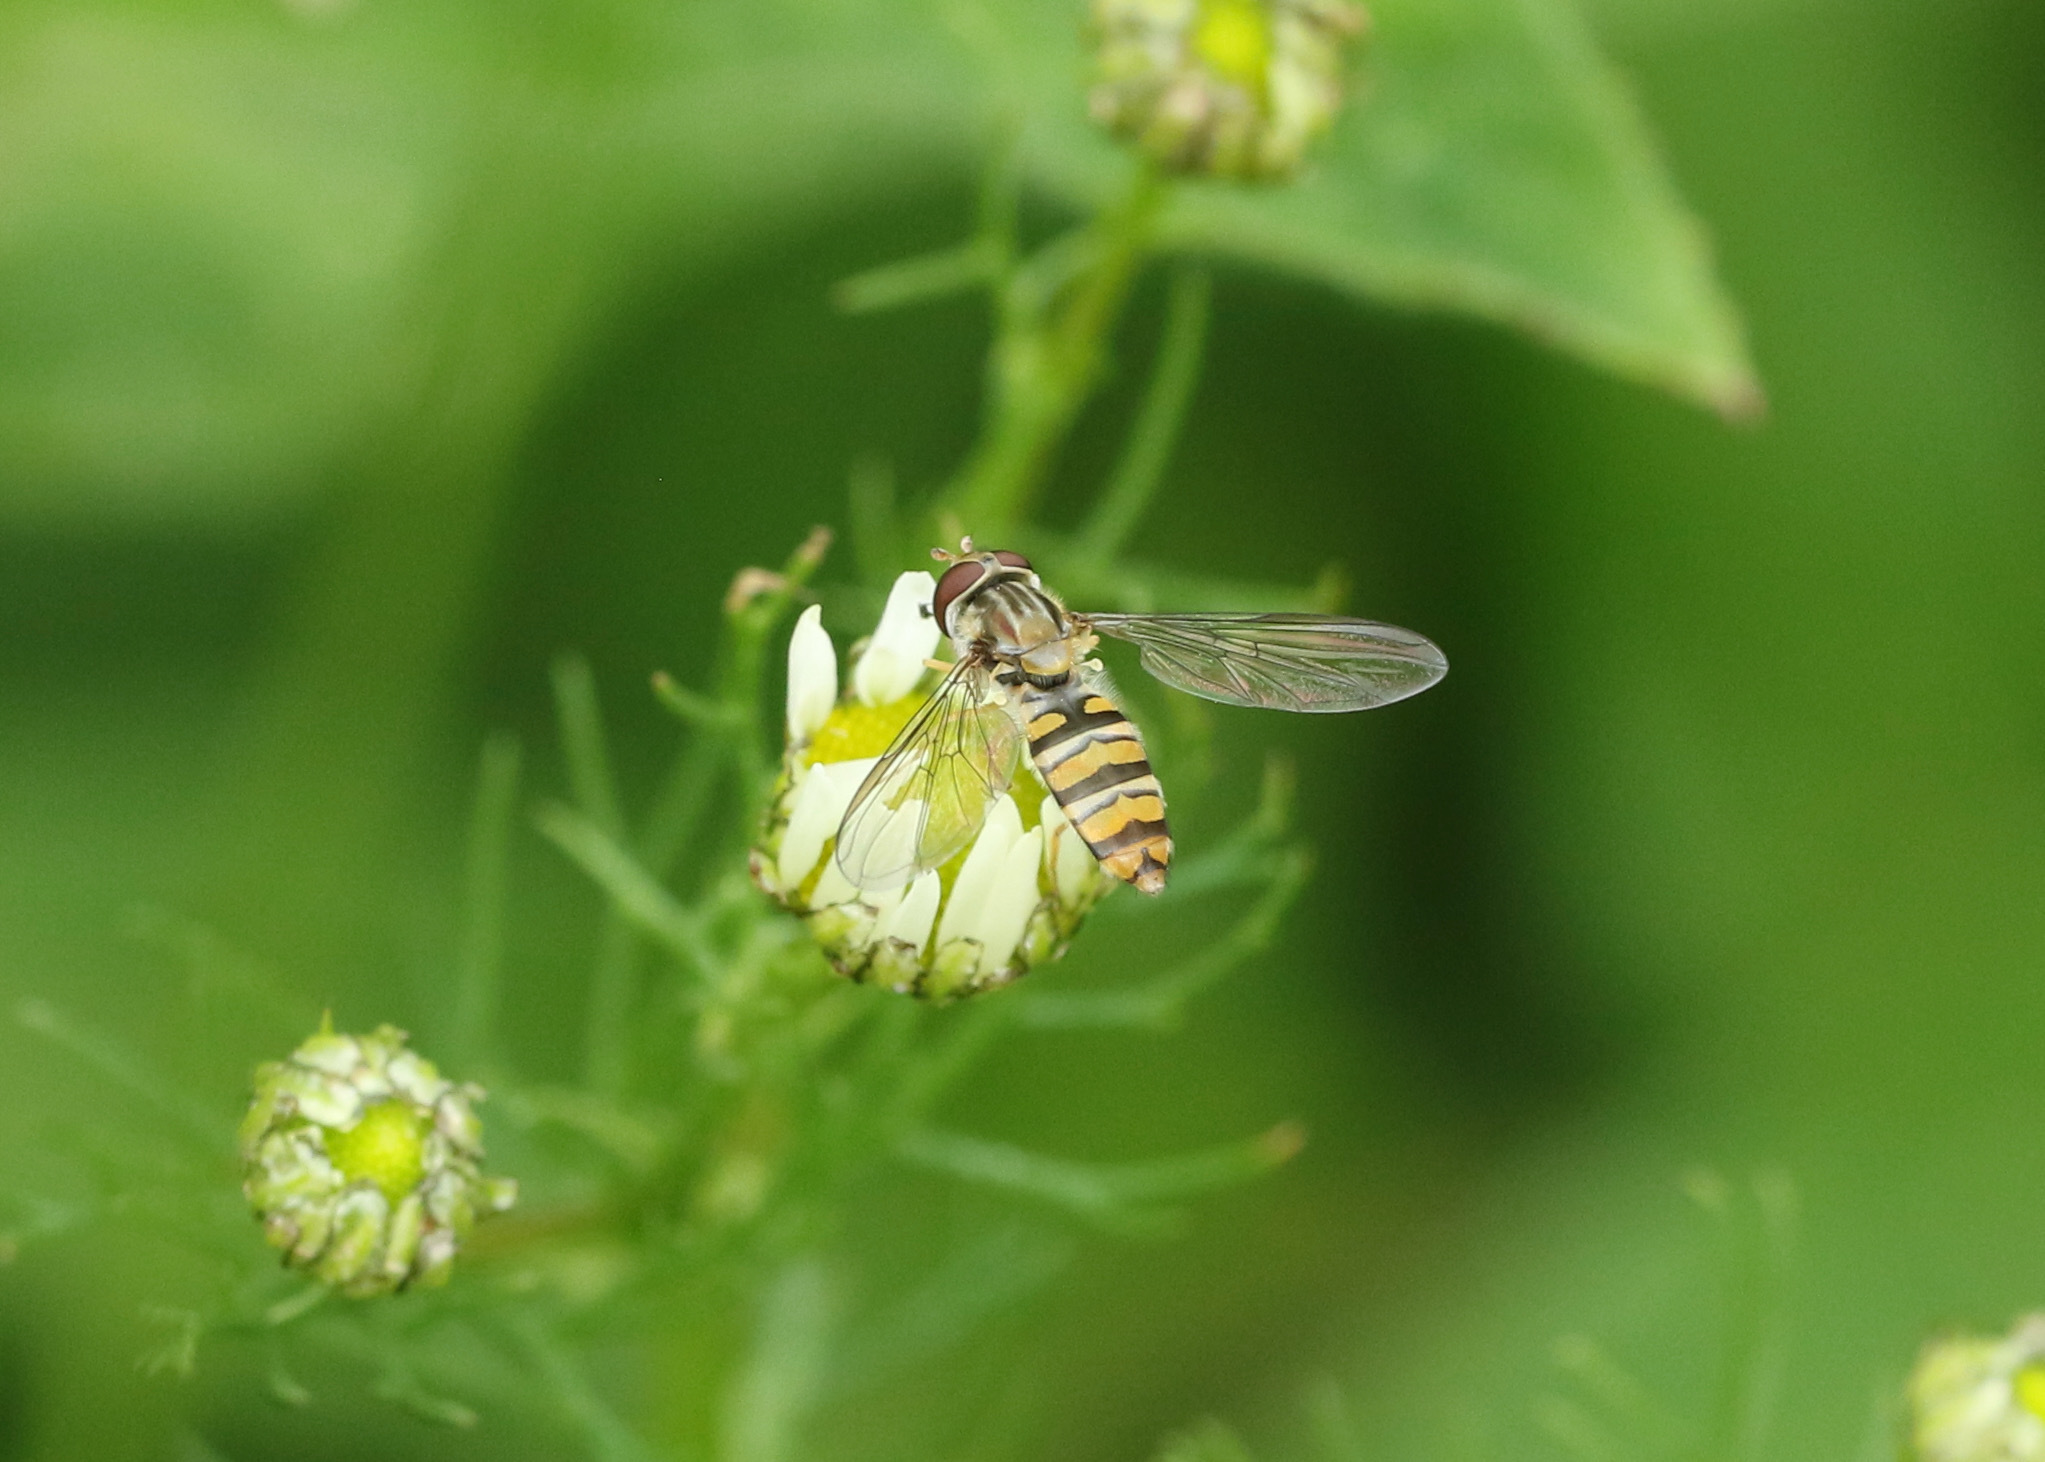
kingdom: Animalia
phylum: Arthropoda
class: Insecta
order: Diptera
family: Syrphidae
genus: Episyrphus
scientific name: Episyrphus balteatus
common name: Marmalade hoverfly
